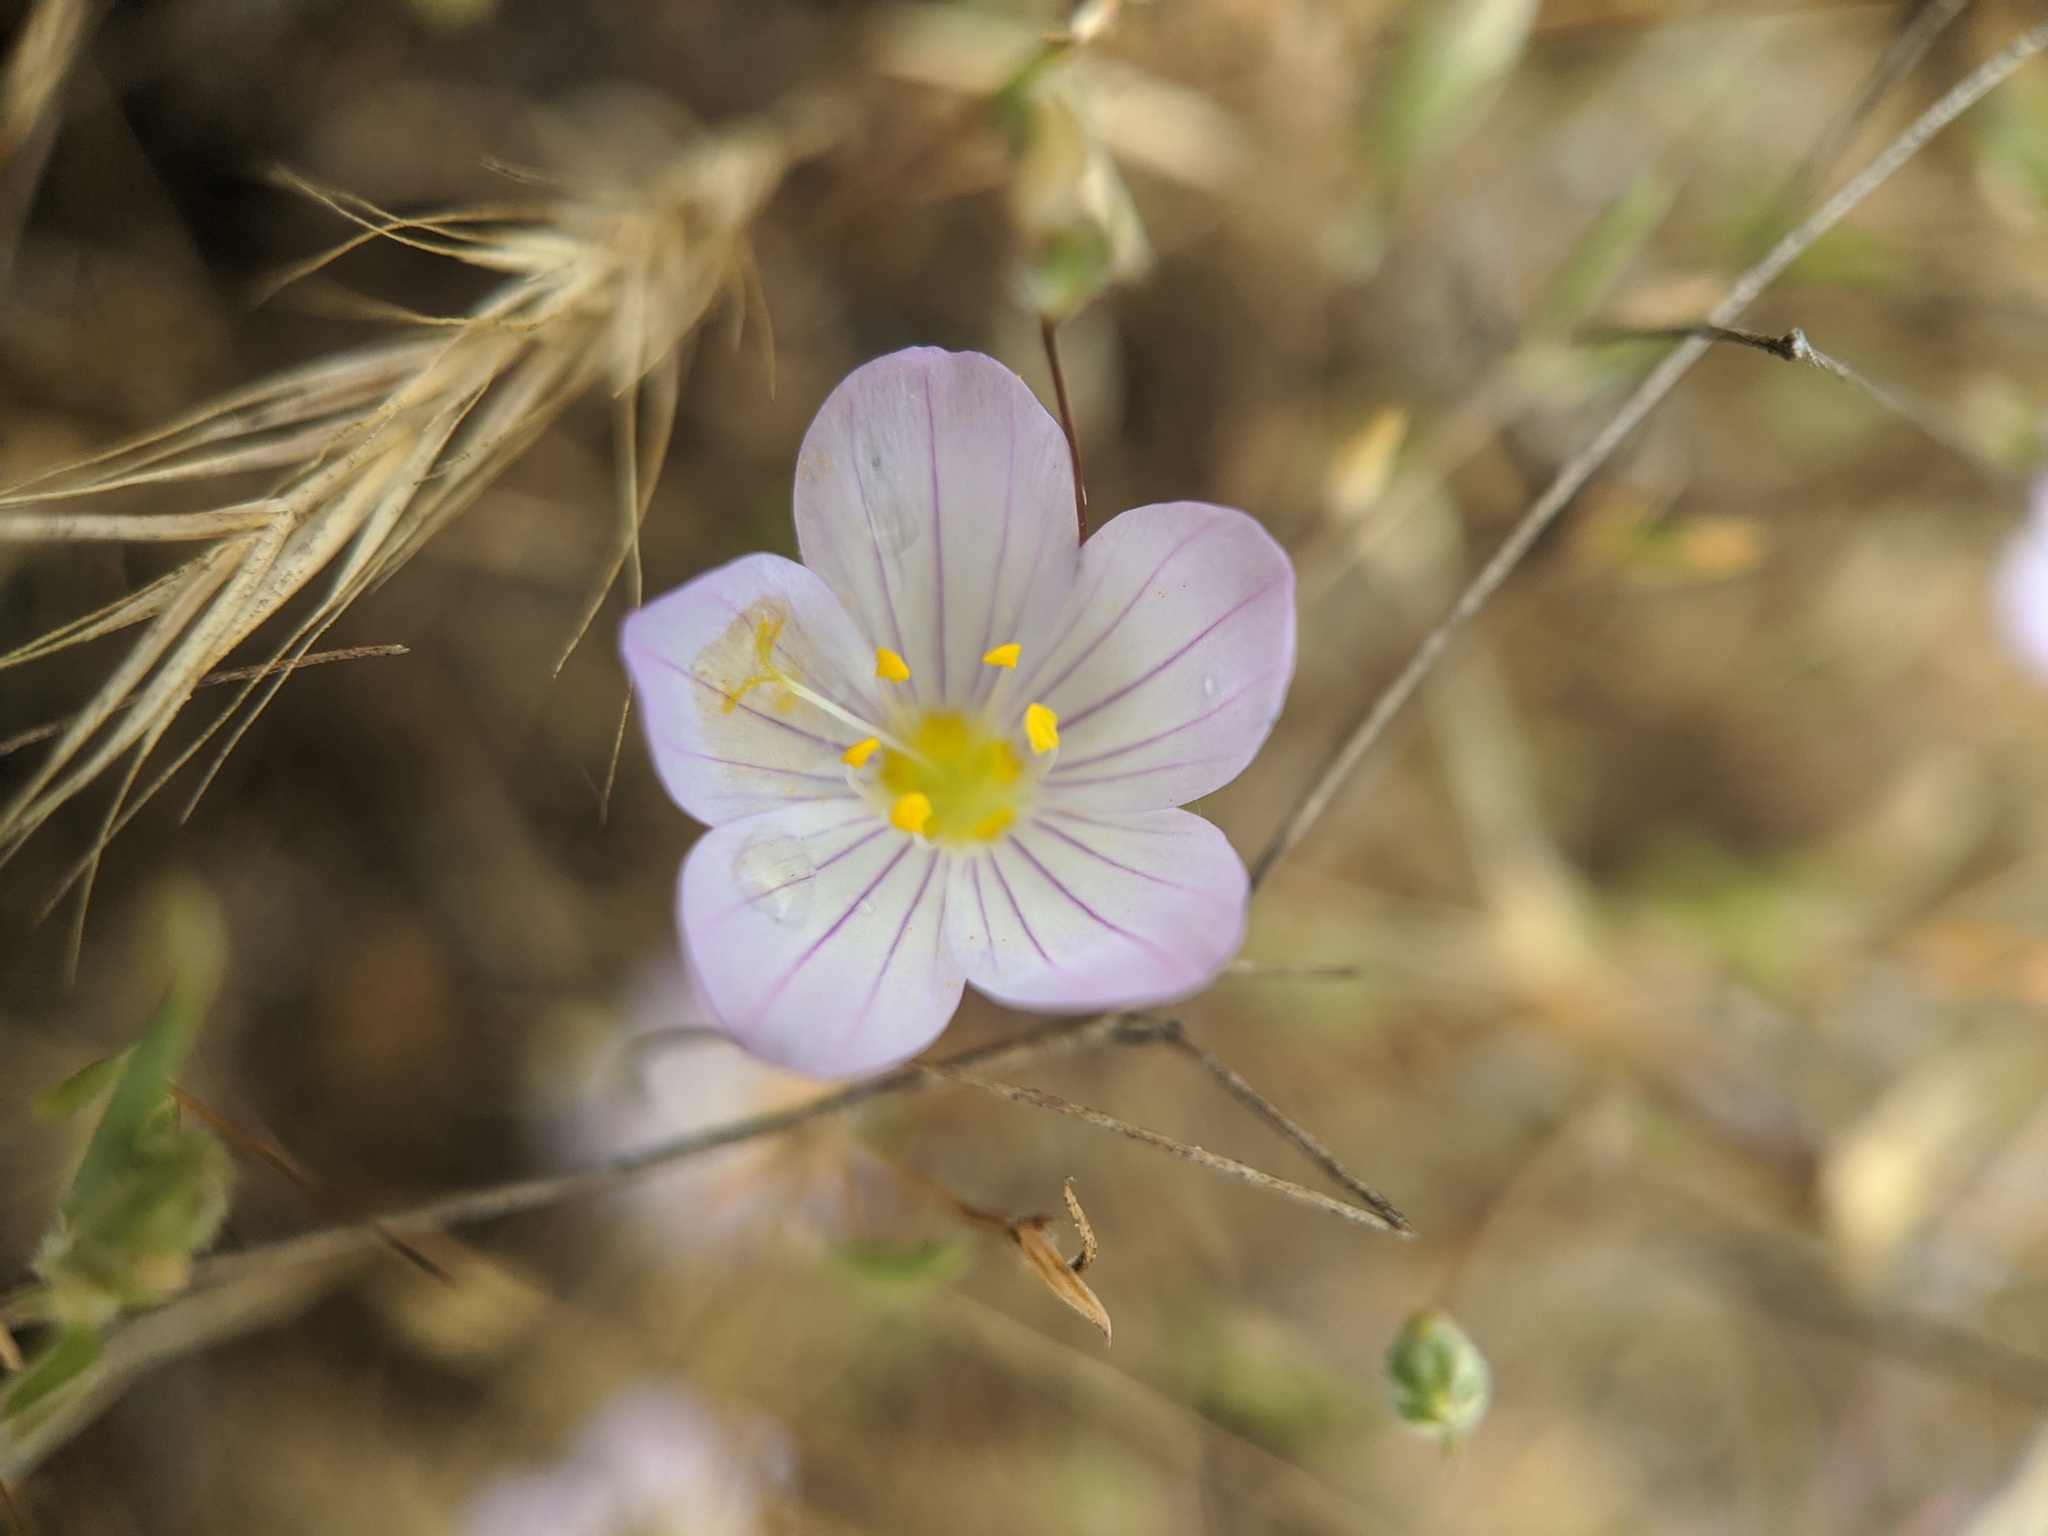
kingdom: Plantae
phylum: Tracheophyta
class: Magnoliopsida
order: Ericales
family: Polemoniaceae
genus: Leptosiphon
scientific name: Leptosiphon liniflorus
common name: Narrowflower flaxflower
